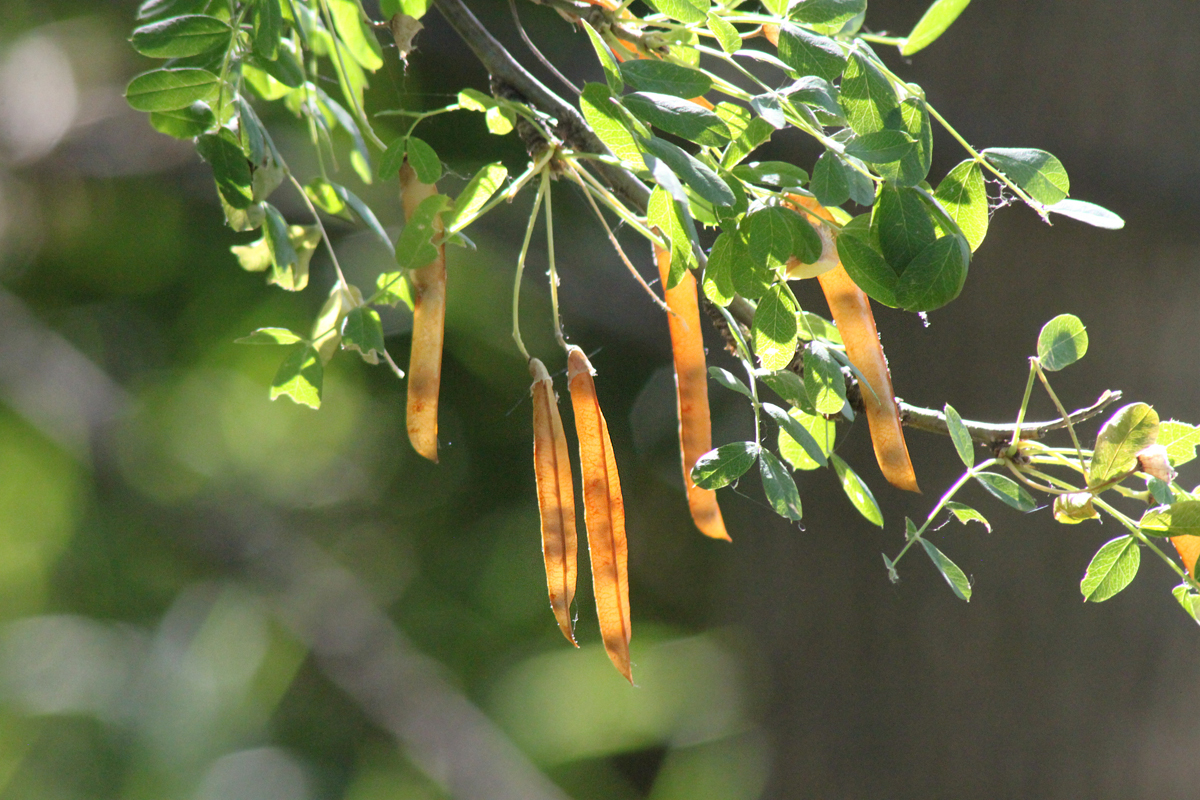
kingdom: Plantae
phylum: Tracheophyta
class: Magnoliopsida
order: Fabales
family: Fabaceae
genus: Caragana
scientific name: Caragana arborescens
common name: Siberian peashrub
